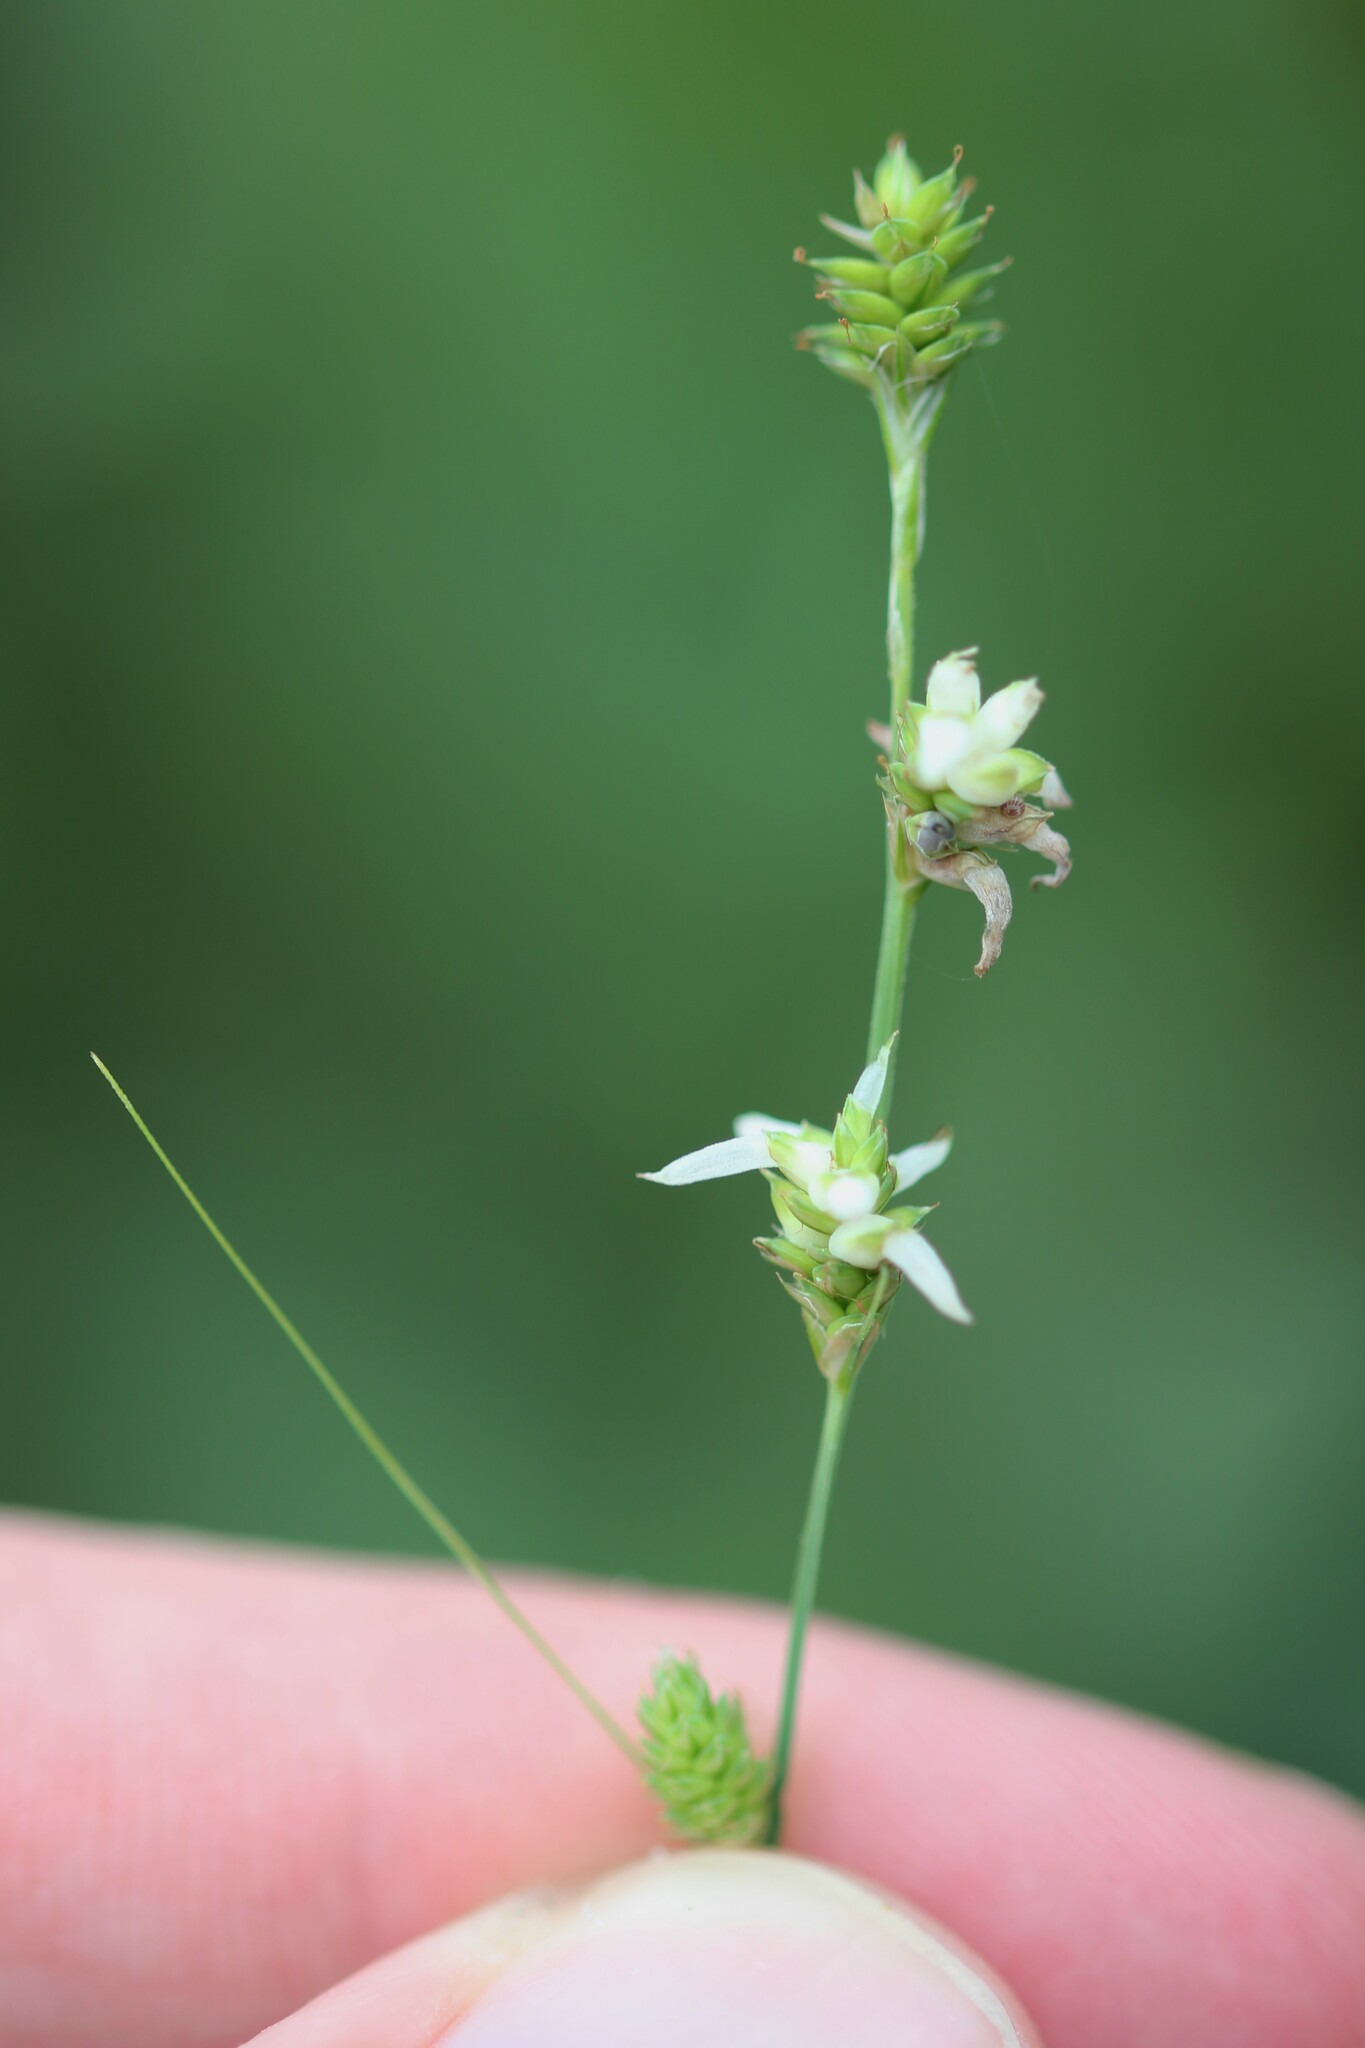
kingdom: Plantae
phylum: Tracheophyta
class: Liliopsida
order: Poales
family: Cyperaceae
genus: Carex
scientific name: Carex canescens
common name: White sedge
